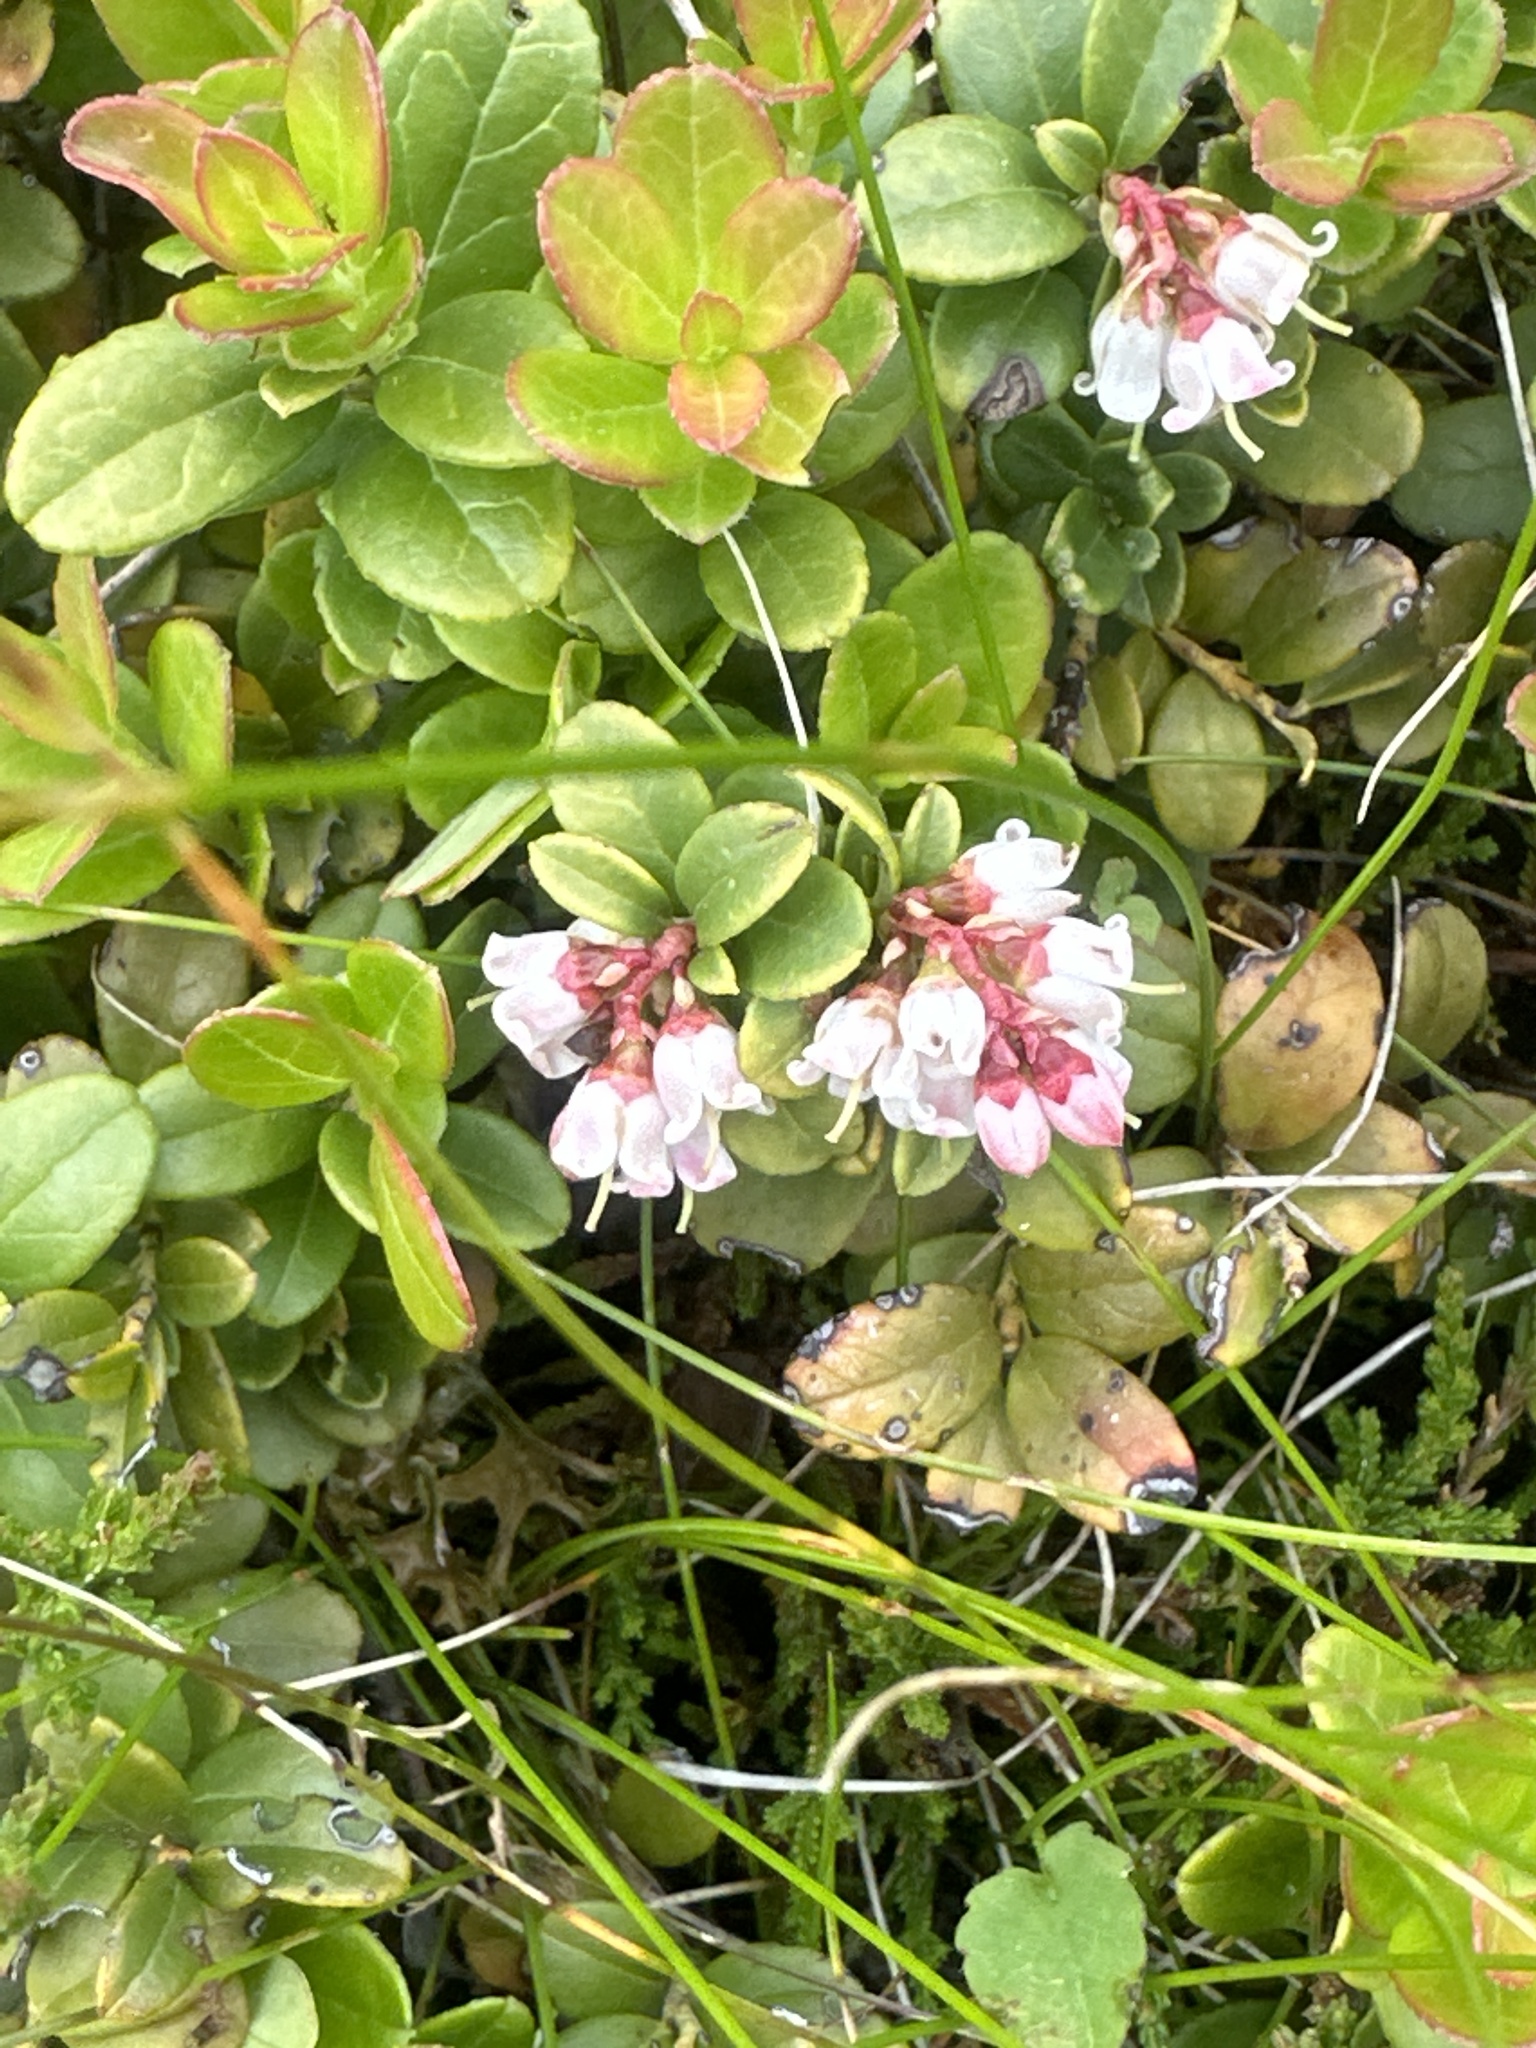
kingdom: Plantae
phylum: Tracheophyta
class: Magnoliopsida
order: Ericales
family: Ericaceae
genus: Vaccinium
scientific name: Vaccinium vitis-idaea
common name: Cowberry
